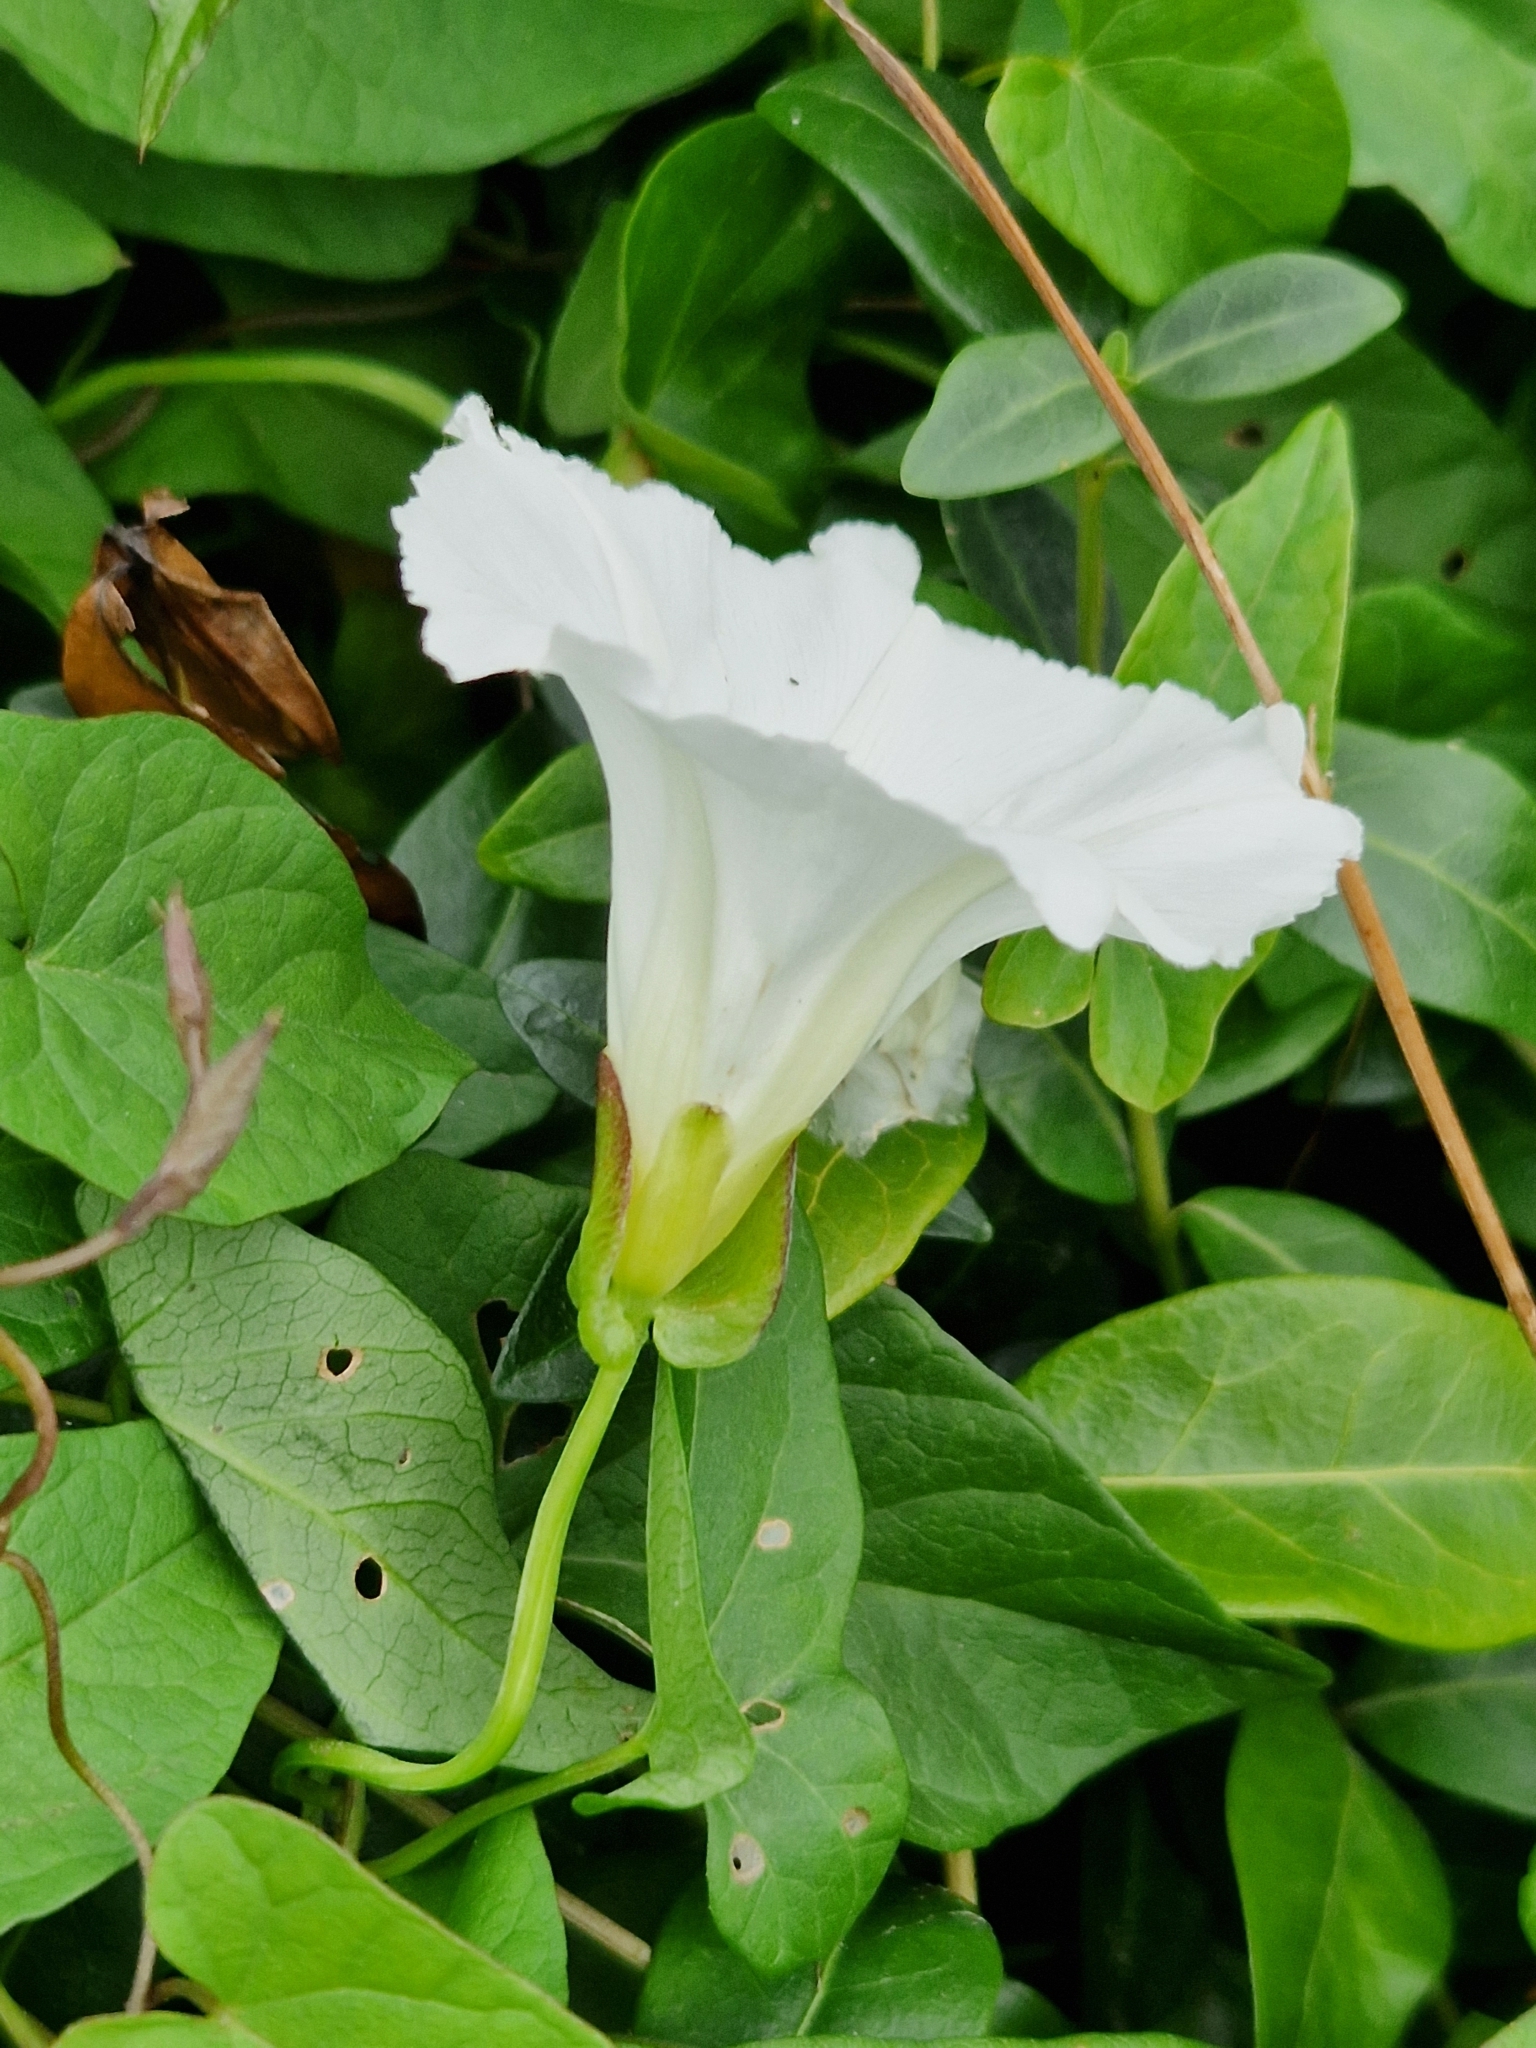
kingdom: Plantae
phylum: Tracheophyta
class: Magnoliopsida
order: Solanales
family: Convolvulaceae
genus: Calystegia
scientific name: Calystegia sepium
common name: Hedge bindweed
